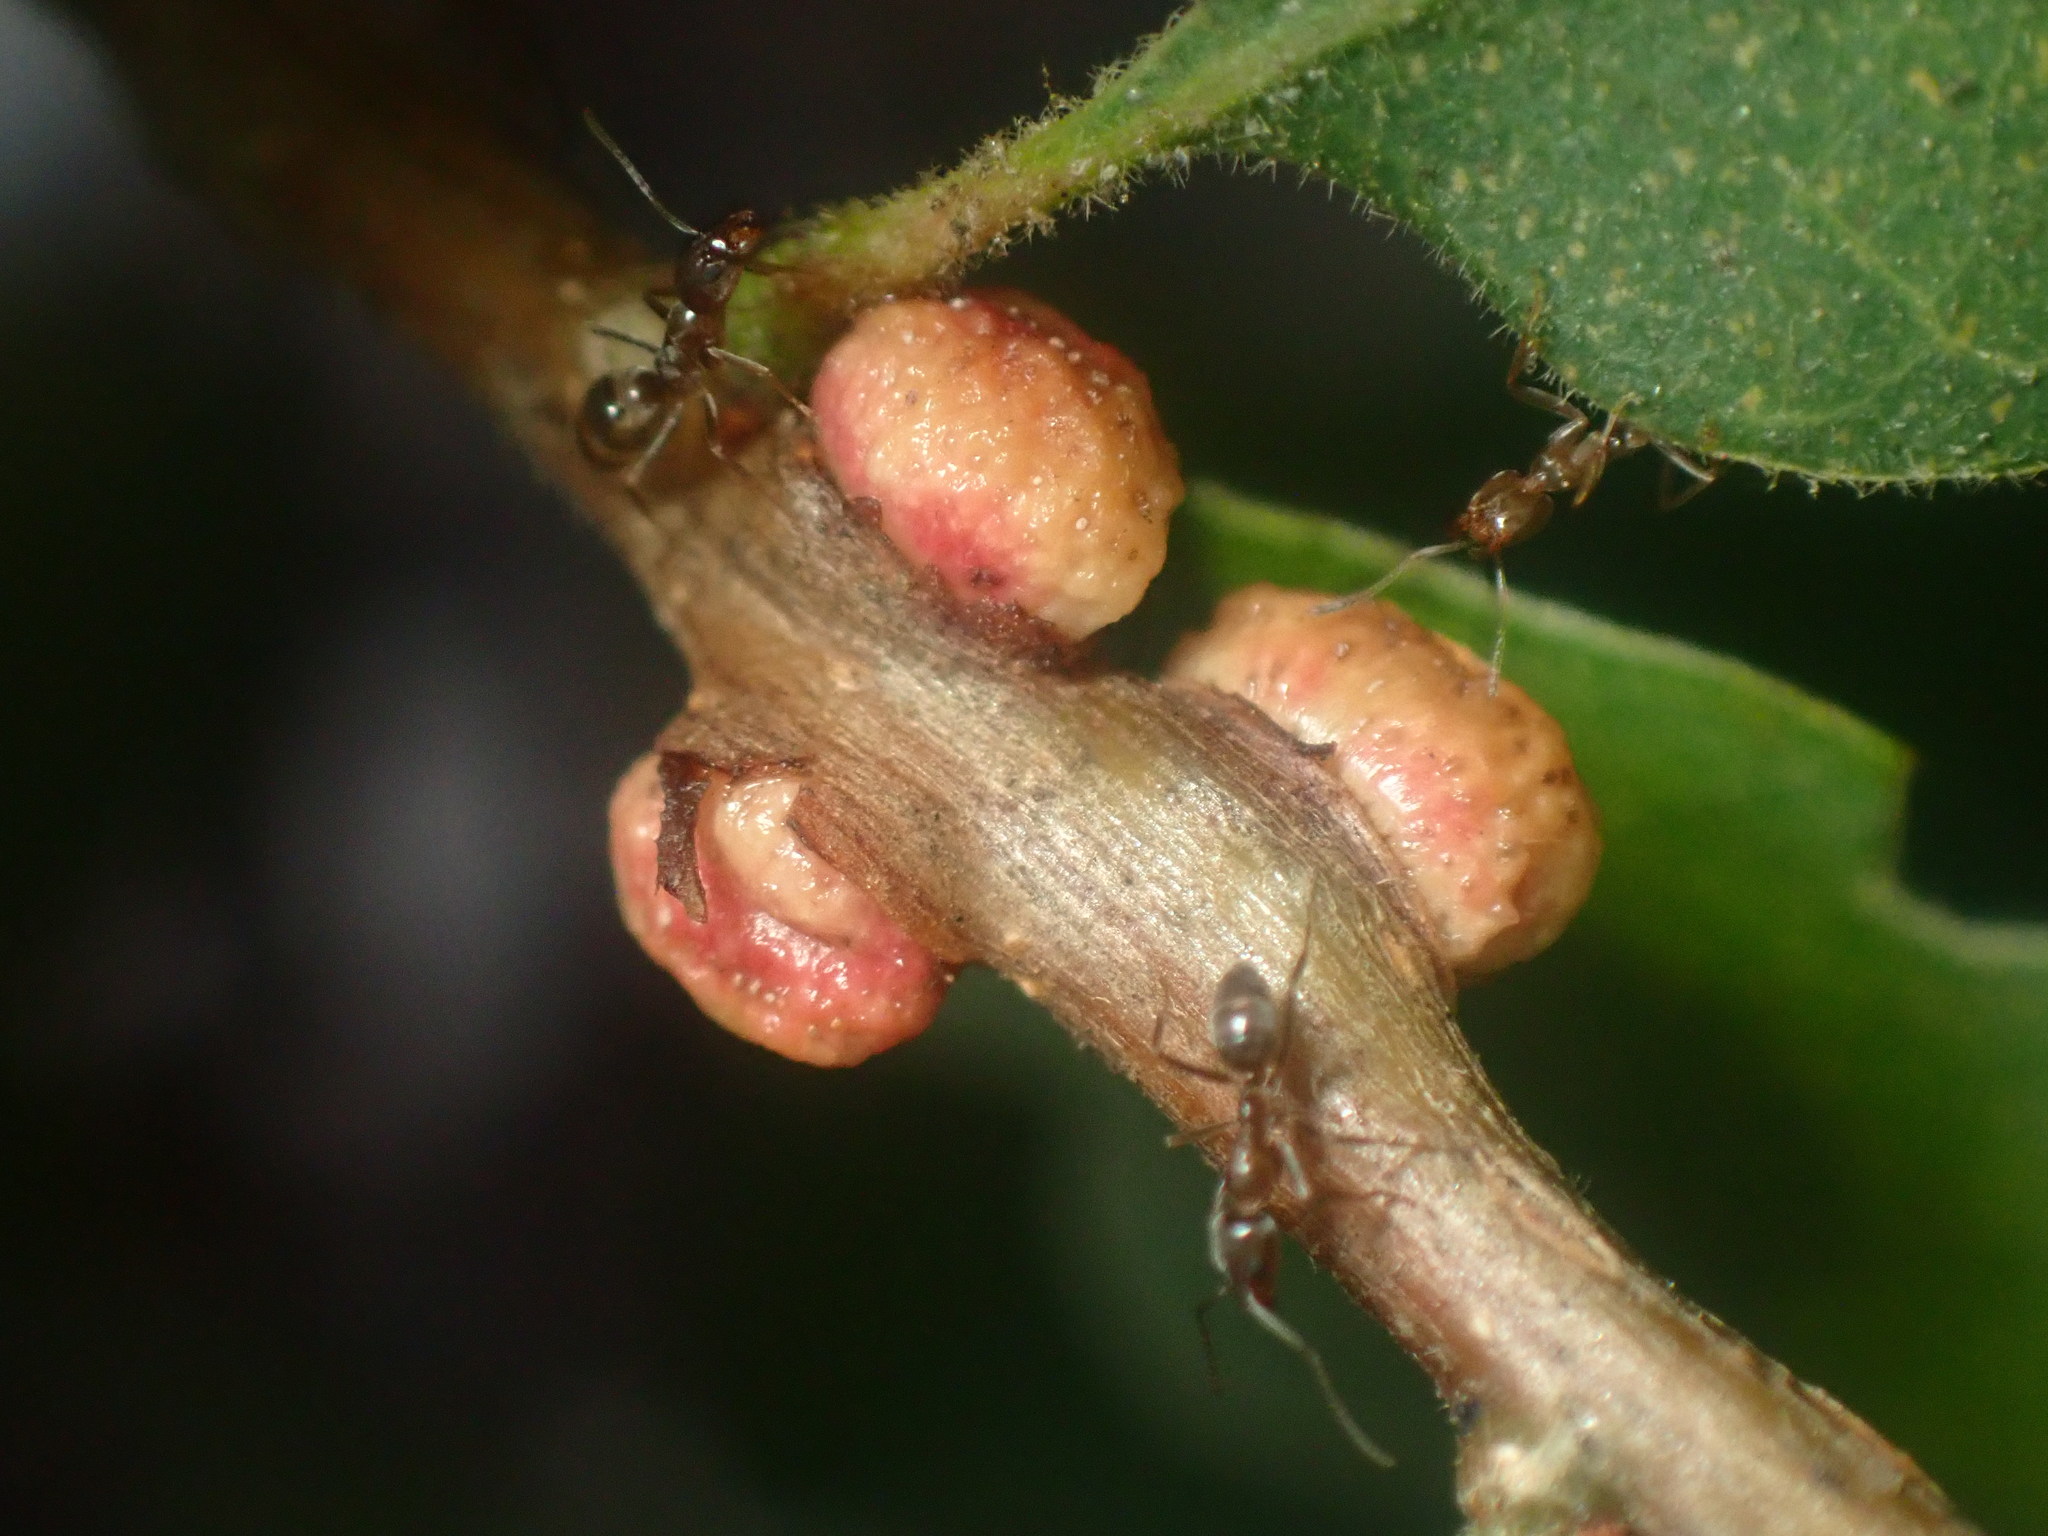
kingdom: Animalia
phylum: Arthropoda
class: Insecta
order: Hymenoptera
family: Cynipidae
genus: Disholcaspis
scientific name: Disholcaspis
